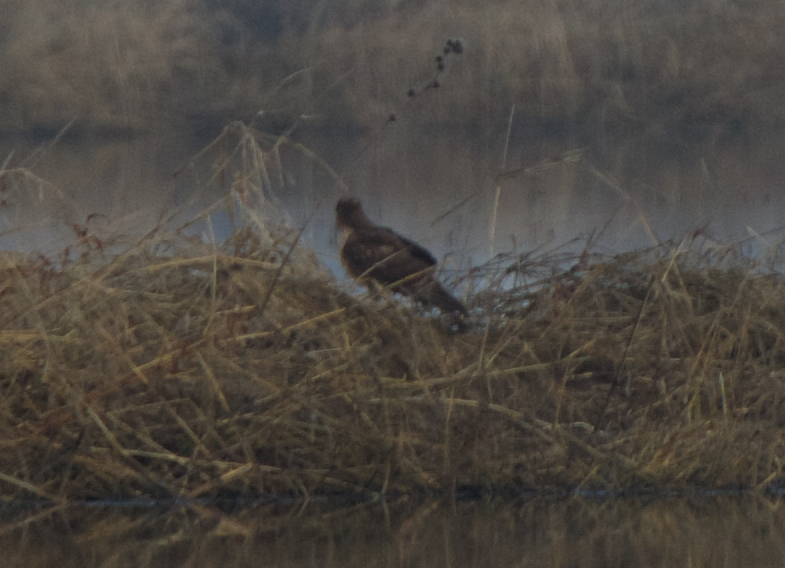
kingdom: Animalia
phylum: Chordata
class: Aves
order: Accipitriformes
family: Accipitridae
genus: Circus
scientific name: Circus cyaneus
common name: Hen harrier
